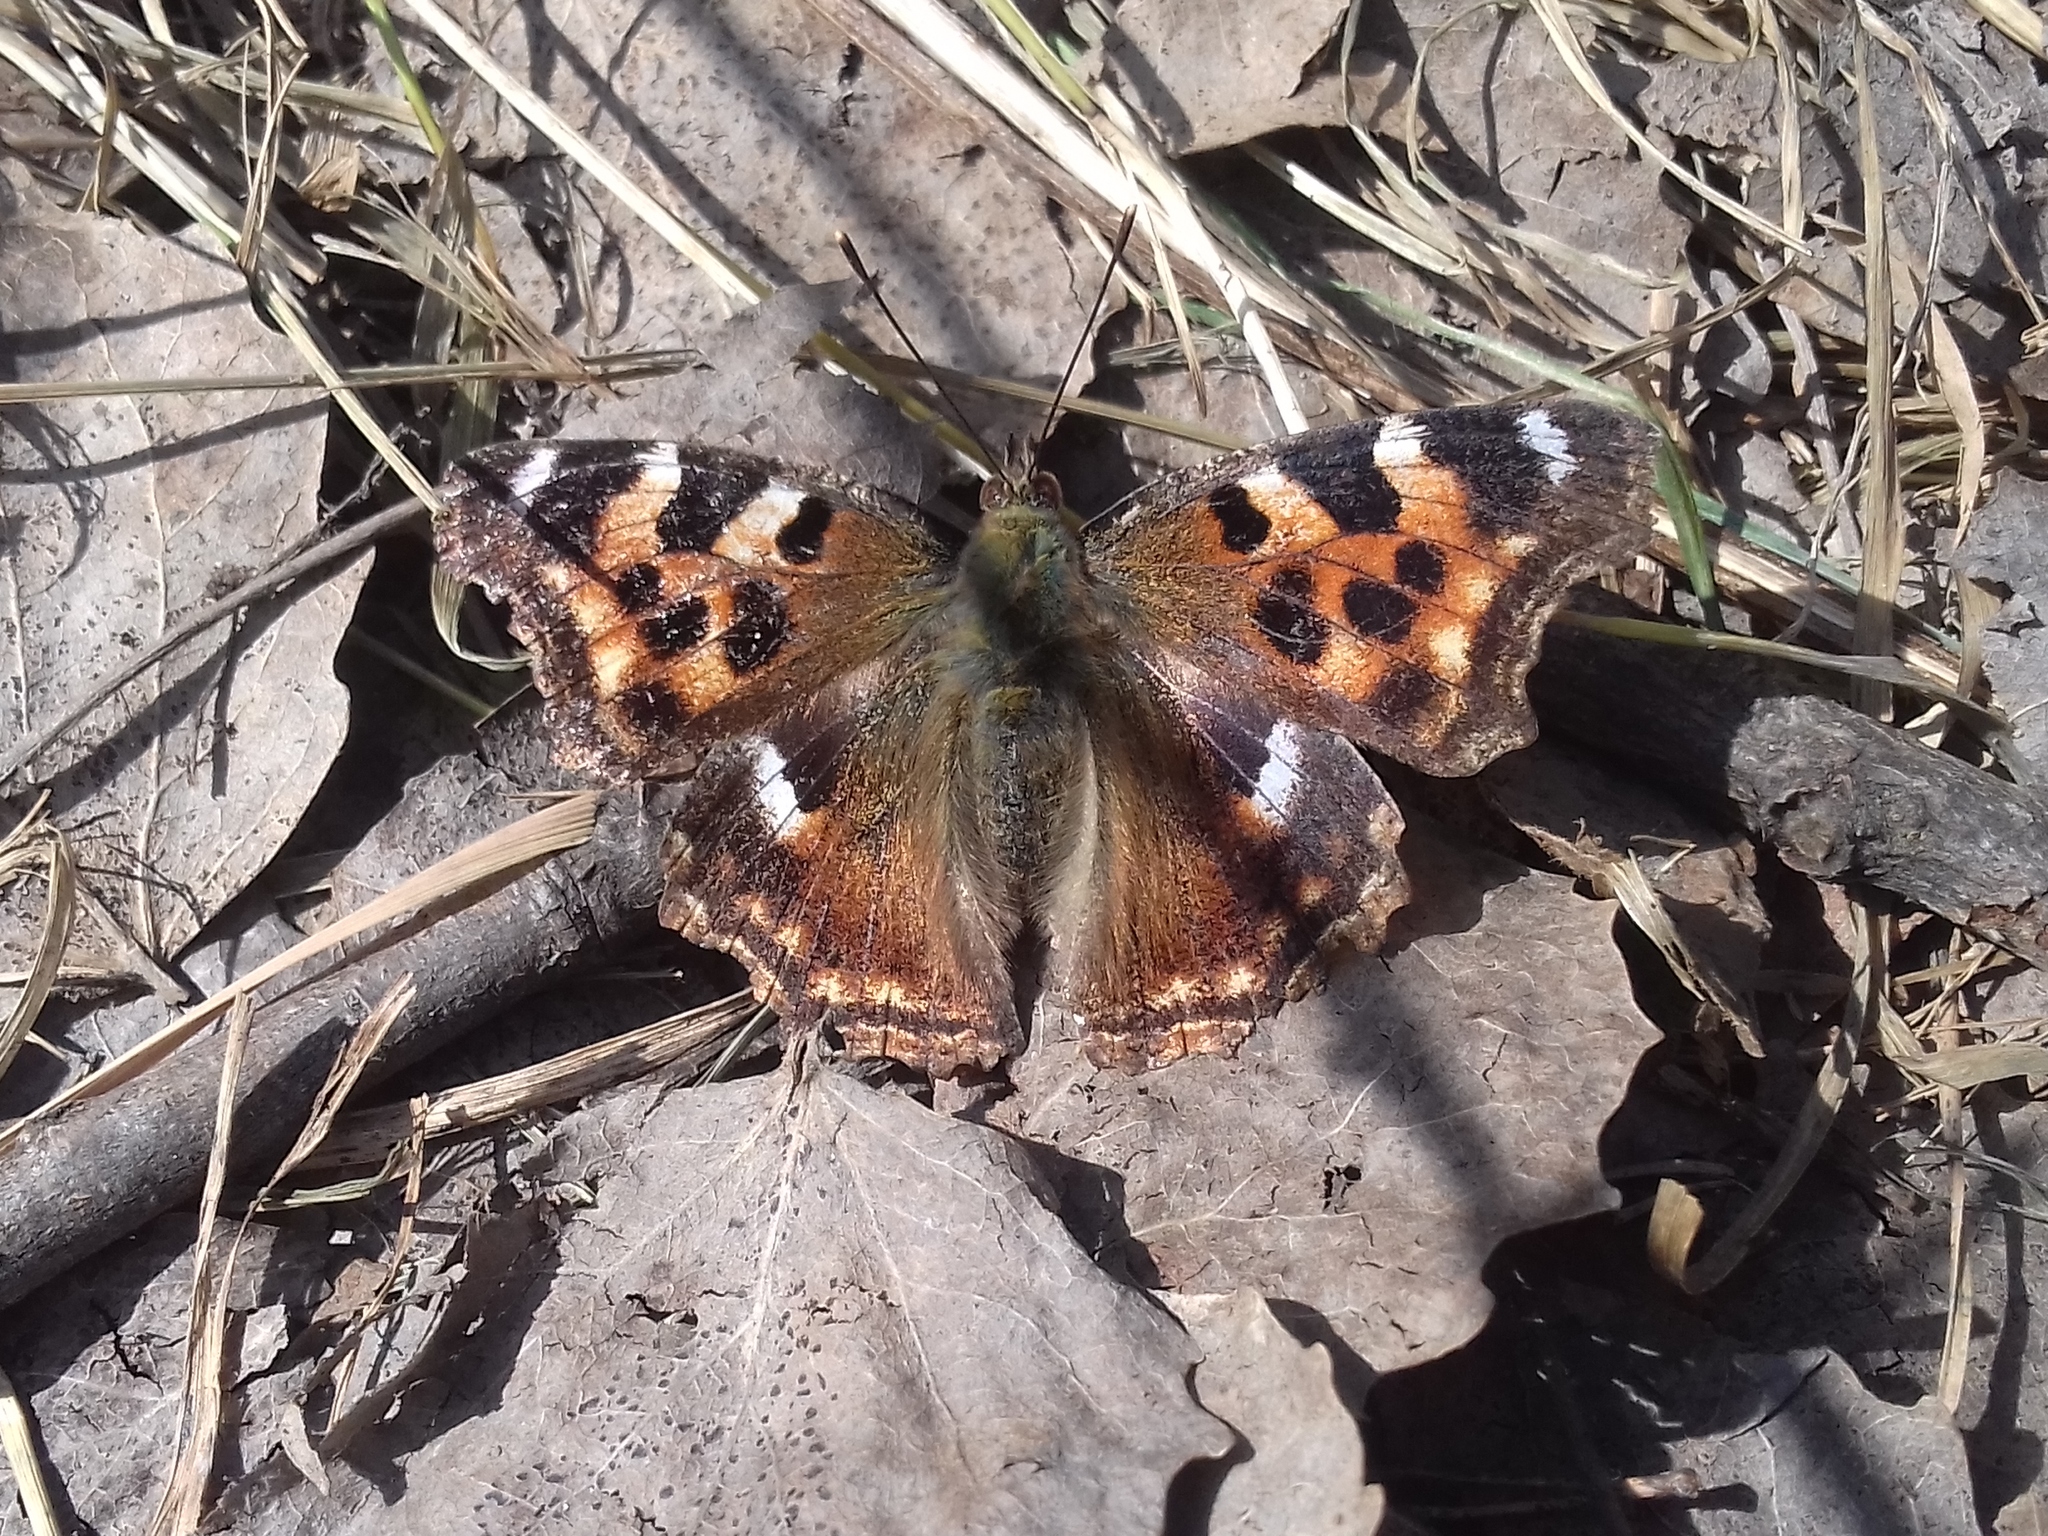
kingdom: Animalia
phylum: Arthropoda
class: Insecta
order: Lepidoptera
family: Nymphalidae
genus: Polygonia
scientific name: Polygonia vaualbum
